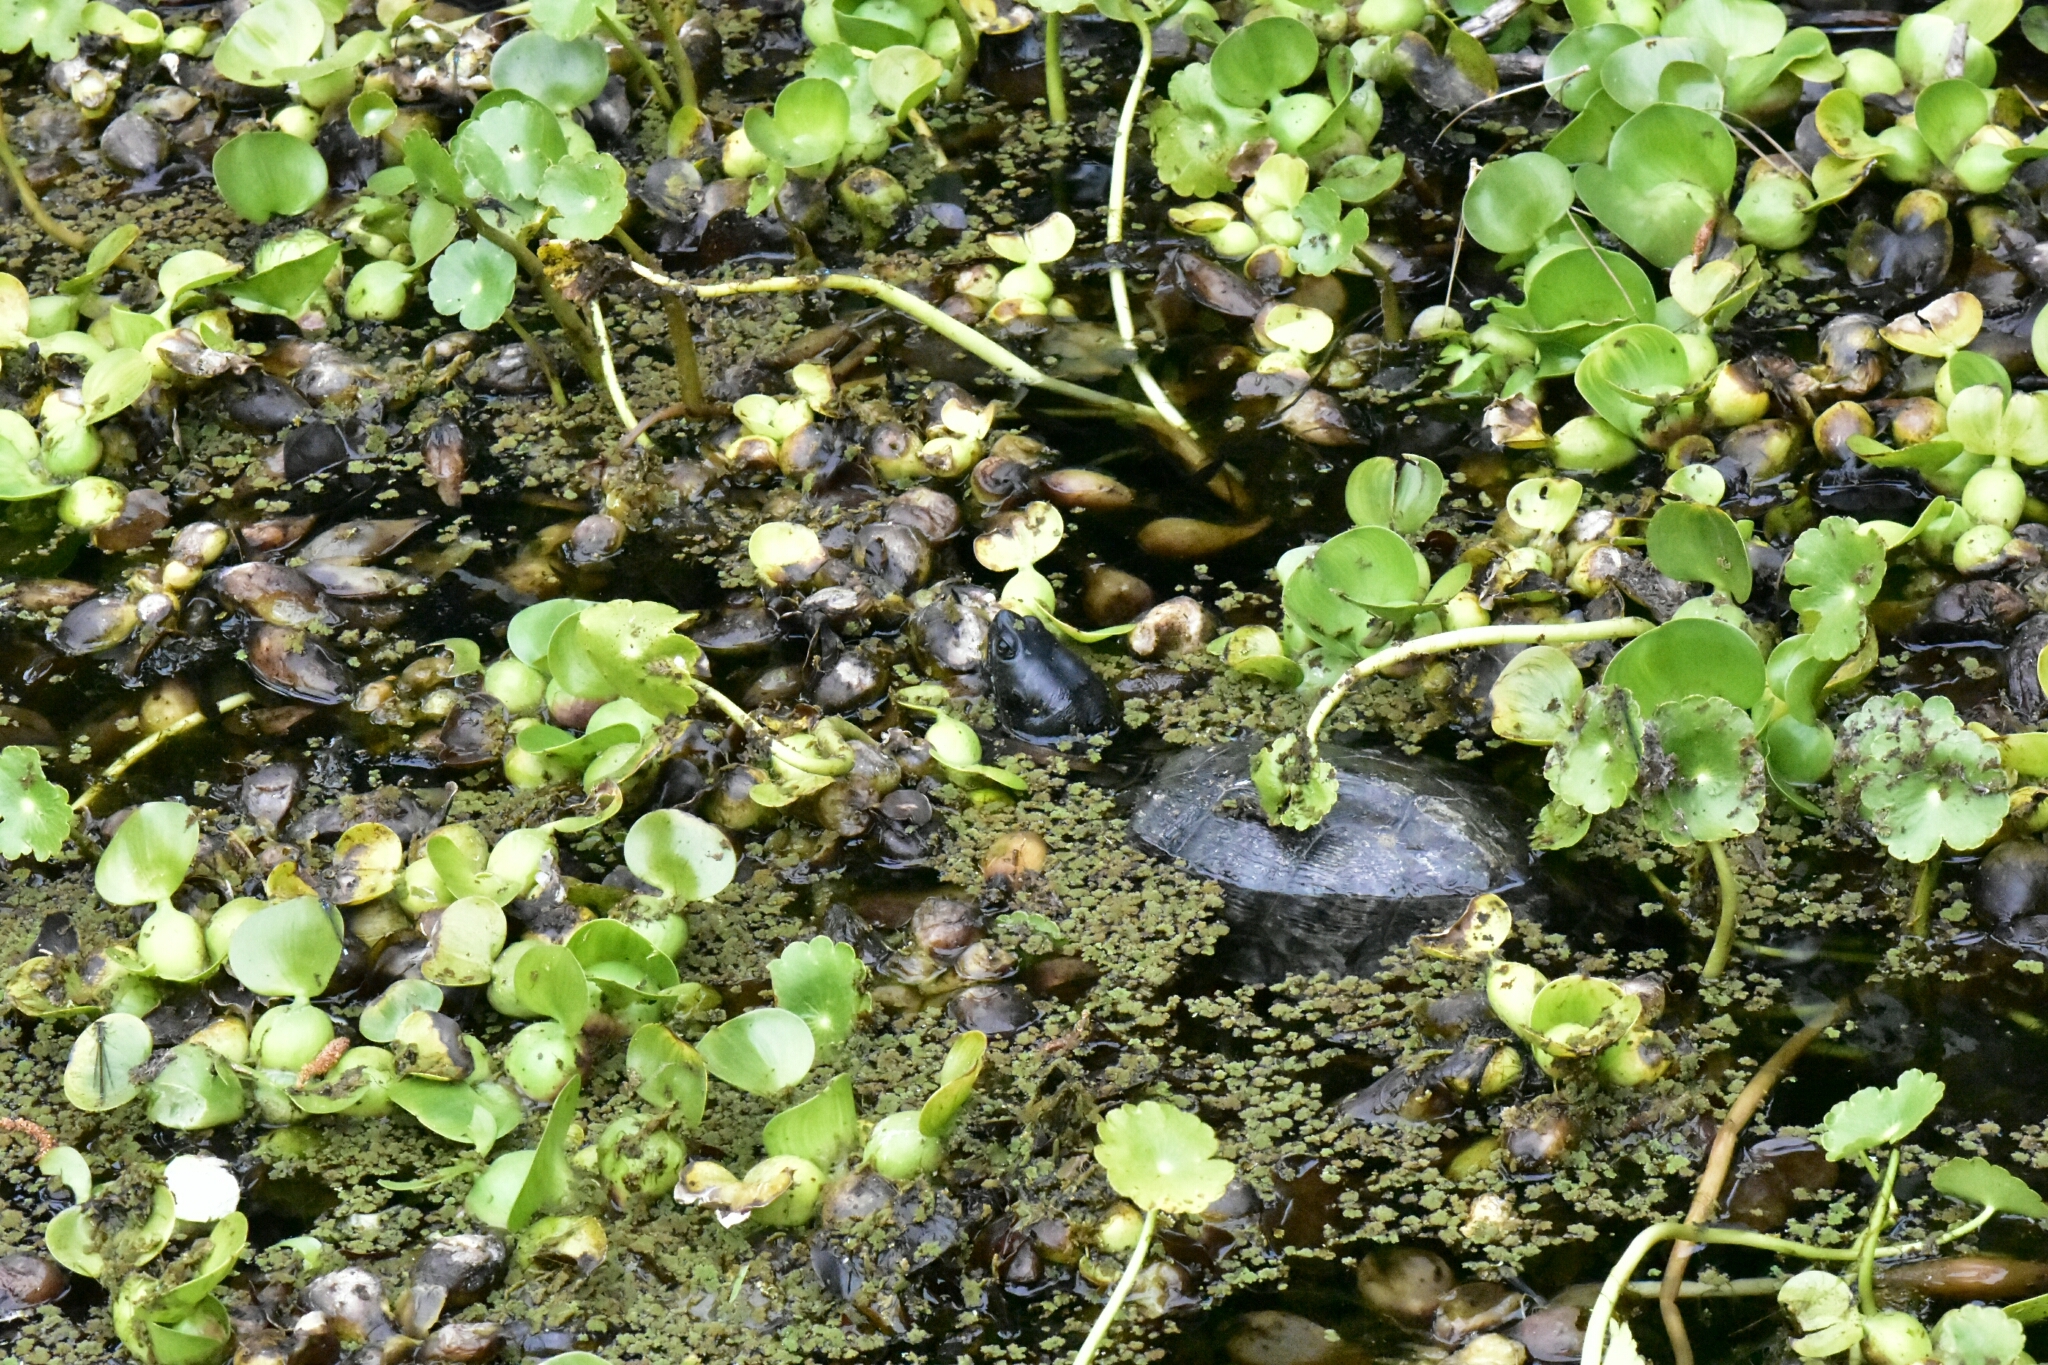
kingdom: Animalia
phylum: Chordata
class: Testudines
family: Emydidae
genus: Trachemys
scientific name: Trachemys scripta
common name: Slider
